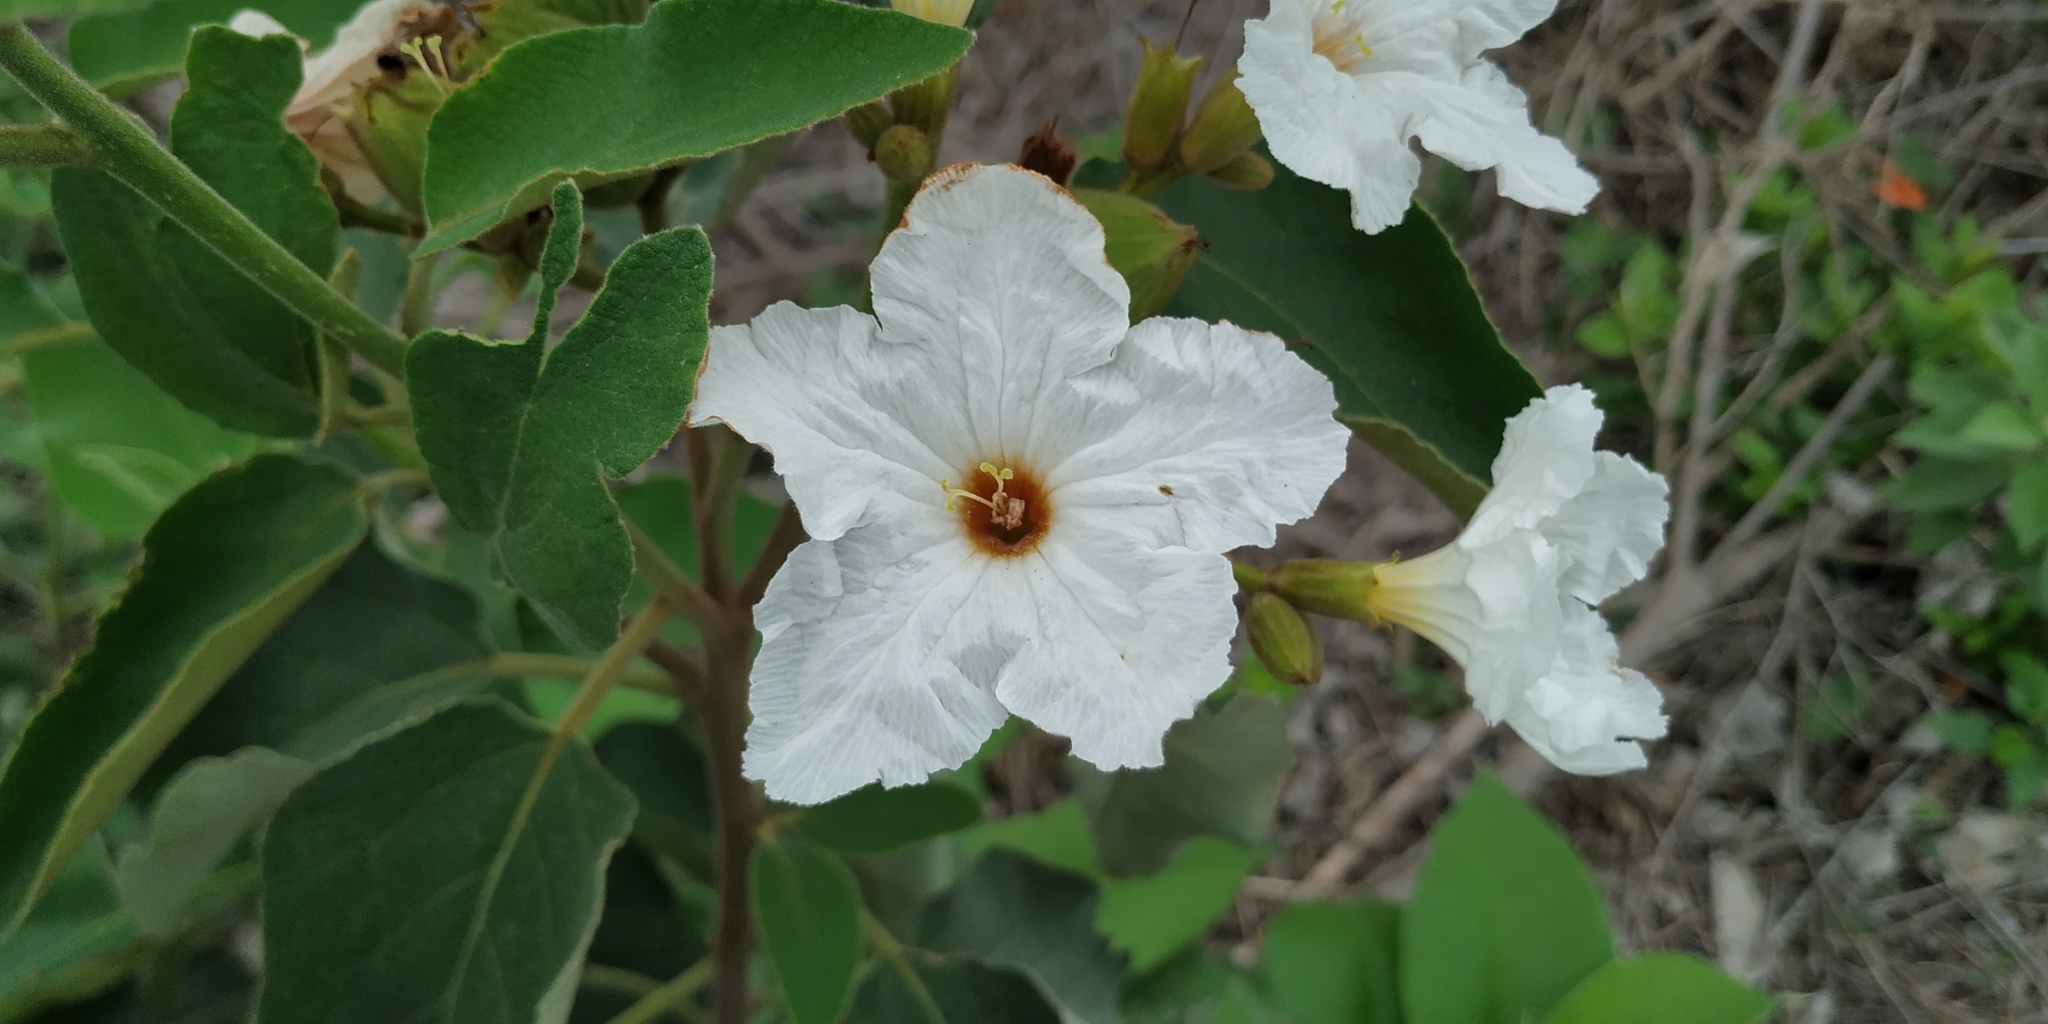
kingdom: Plantae
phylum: Tracheophyta
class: Magnoliopsida
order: Boraginales
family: Cordiaceae
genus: Cordia
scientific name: Cordia boissieri
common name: Mexican-olive
